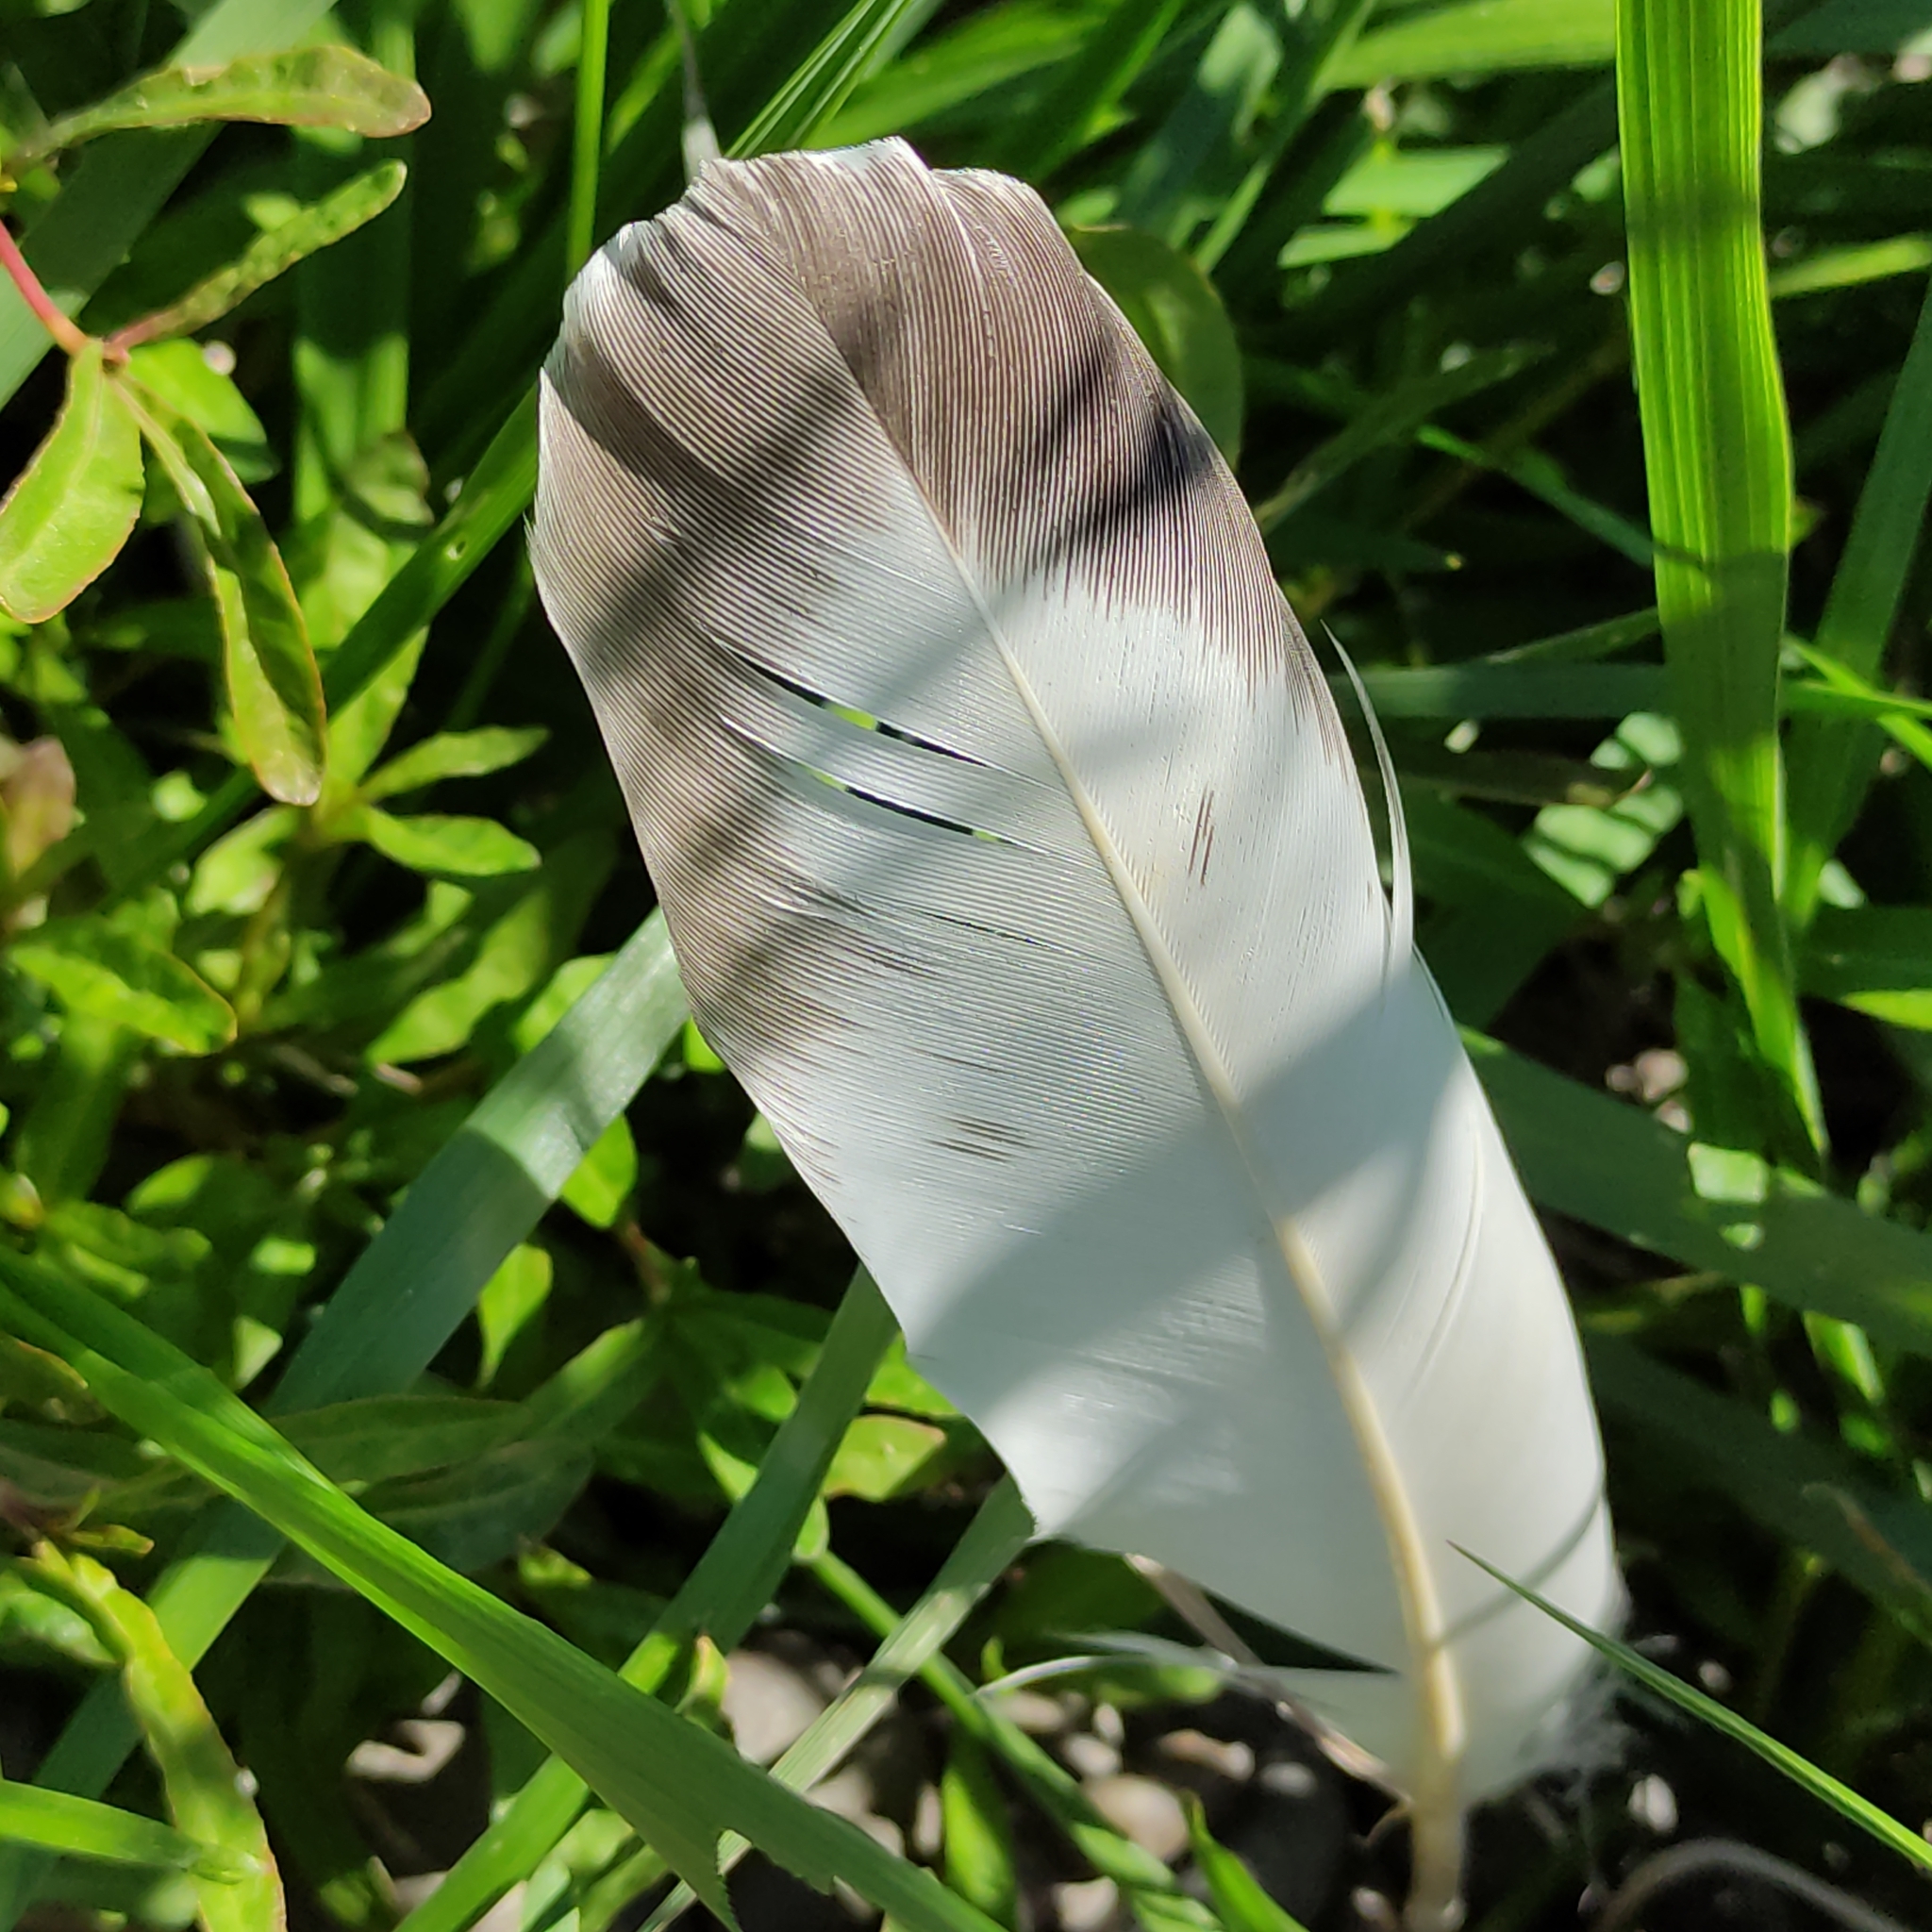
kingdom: Animalia
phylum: Chordata
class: Aves
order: Columbiformes
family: Columbidae
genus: Columba
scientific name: Columba livia
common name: Rock pigeon
